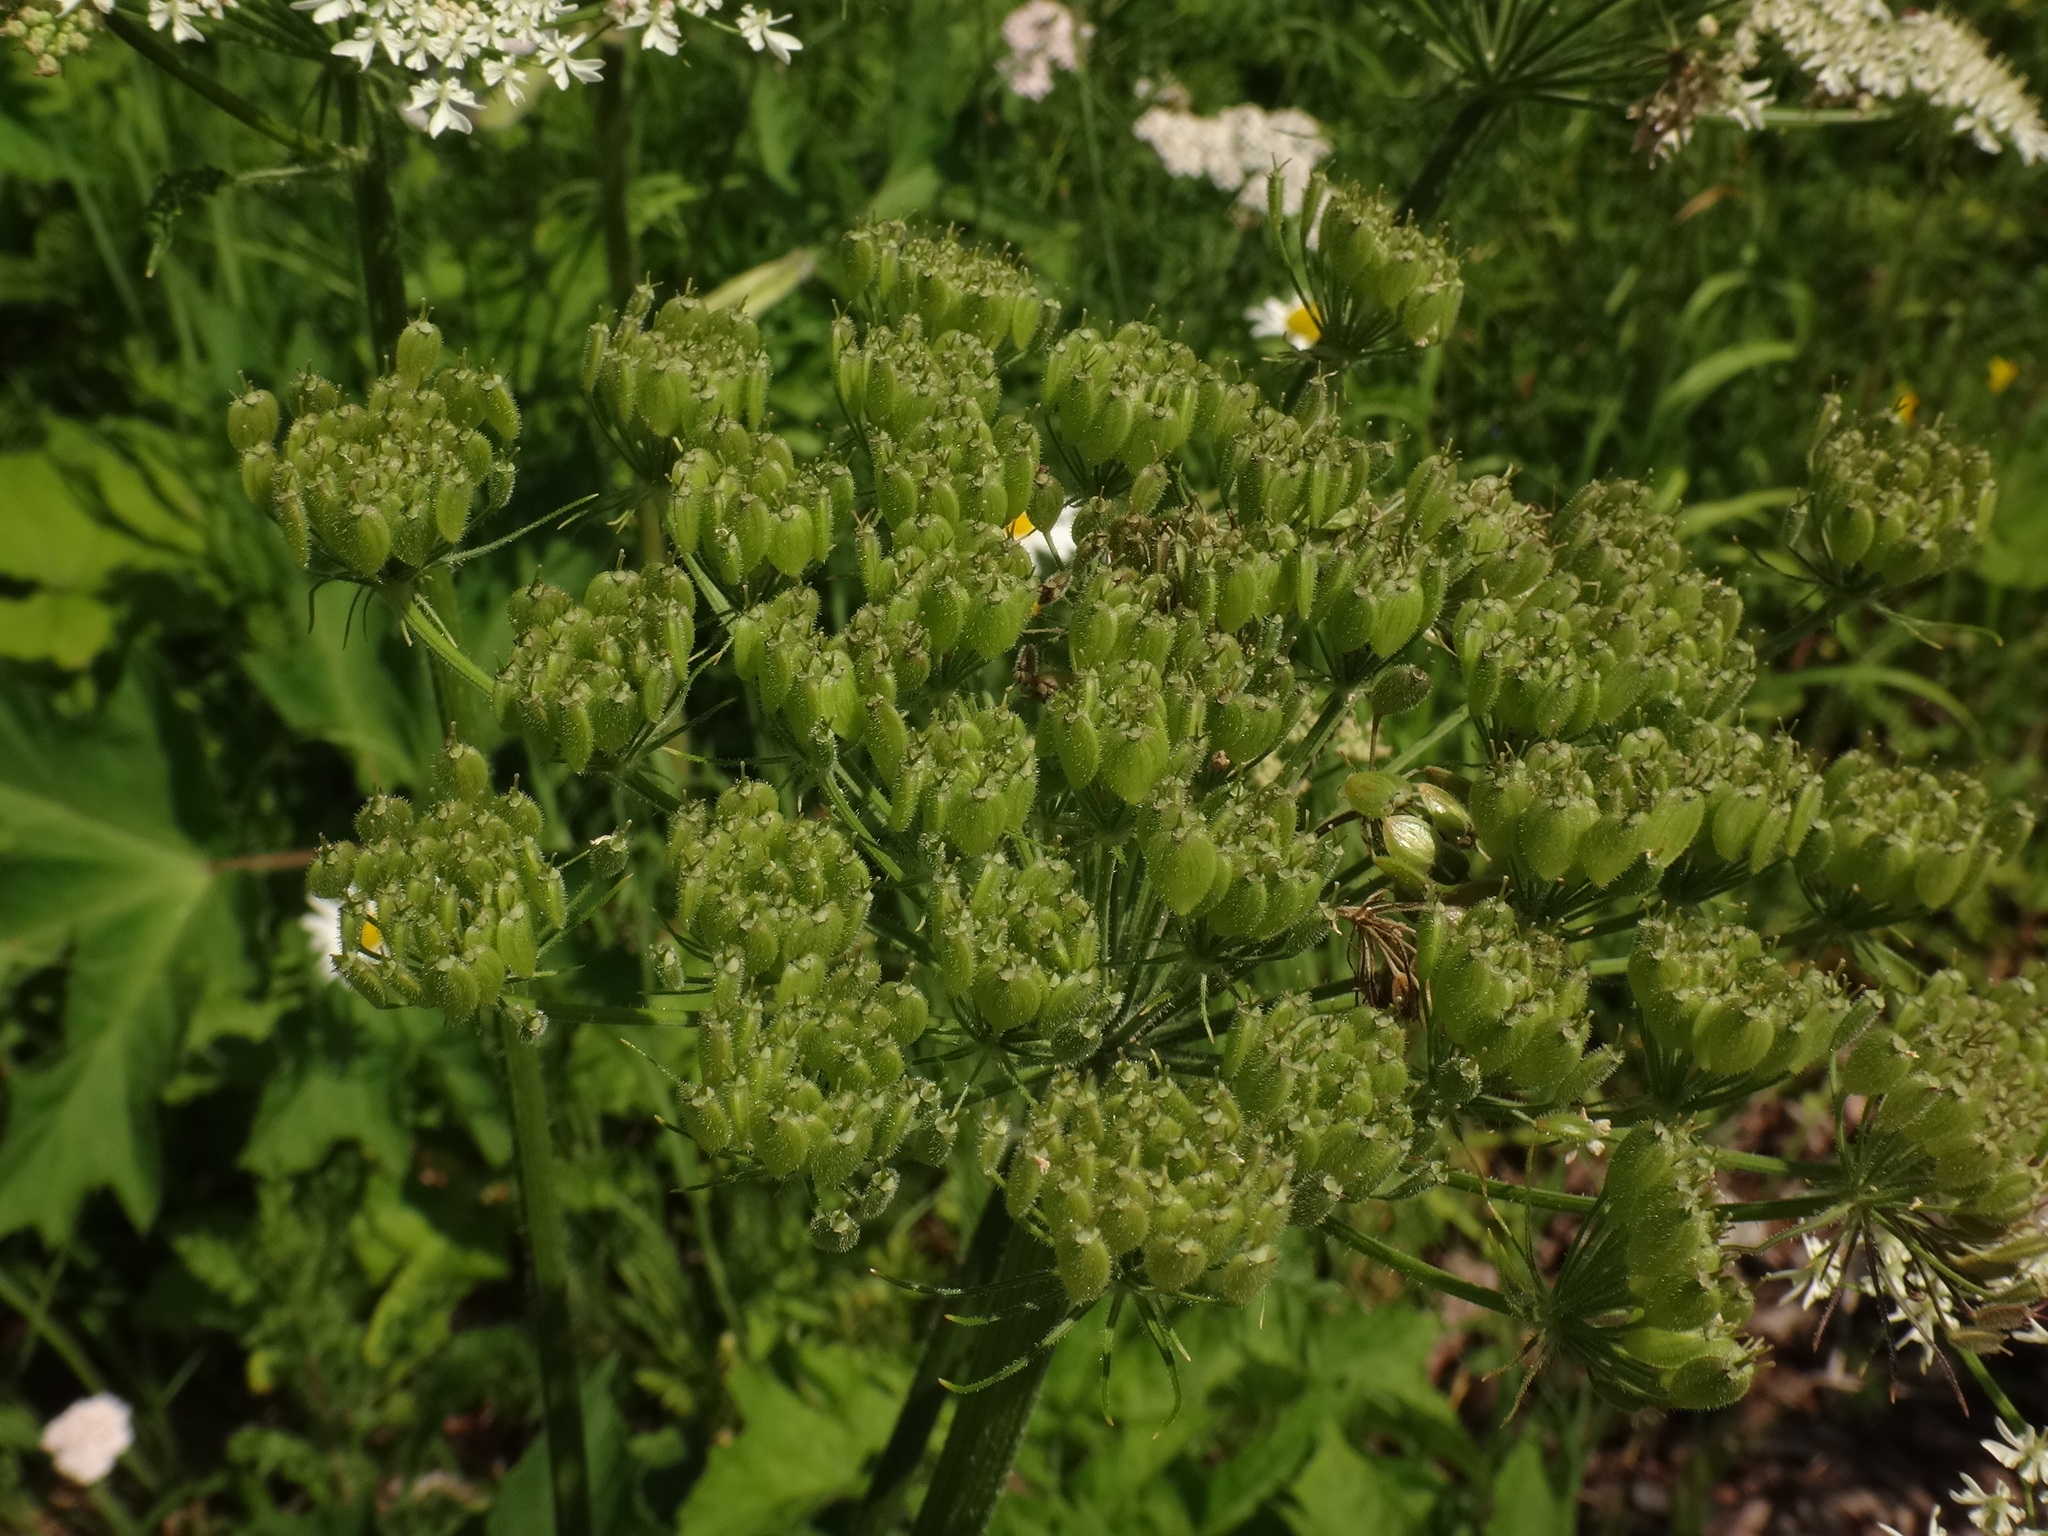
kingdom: Plantae
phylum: Tracheophyta
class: Magnoliopsida
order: Apiales
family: Apiaceae
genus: Heracleum
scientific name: Heracleum sphondylium
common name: Hogweed
